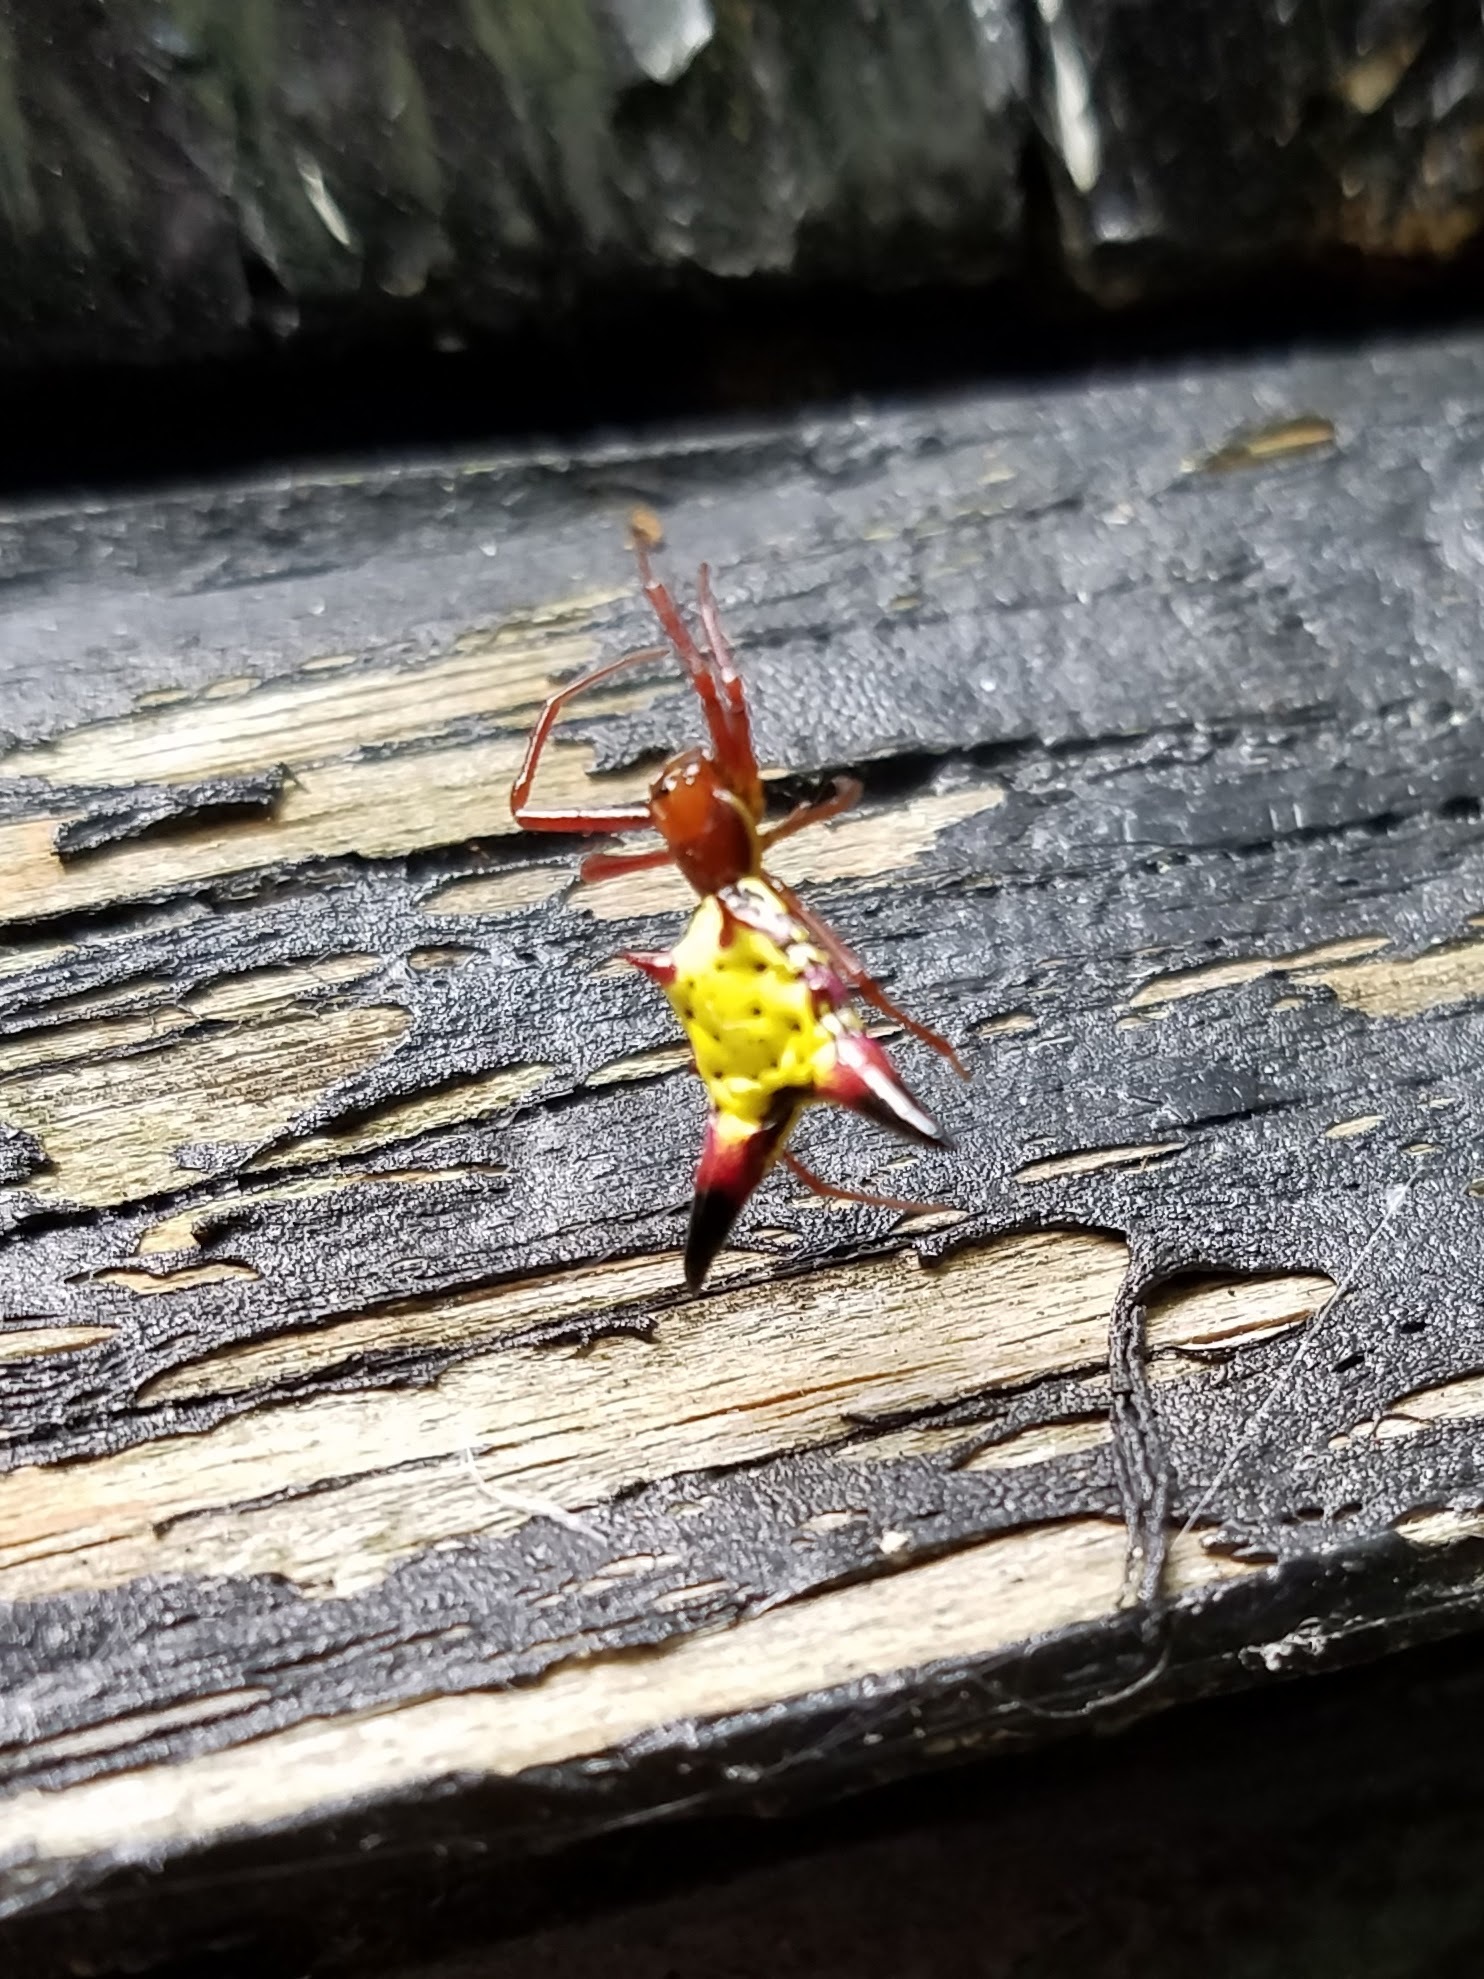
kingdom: Animalia
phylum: Arthropoda
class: Arachnida
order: Araneae
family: Araneidae
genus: Micrathena
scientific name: Micrathena sagittata
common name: Orb weavers
